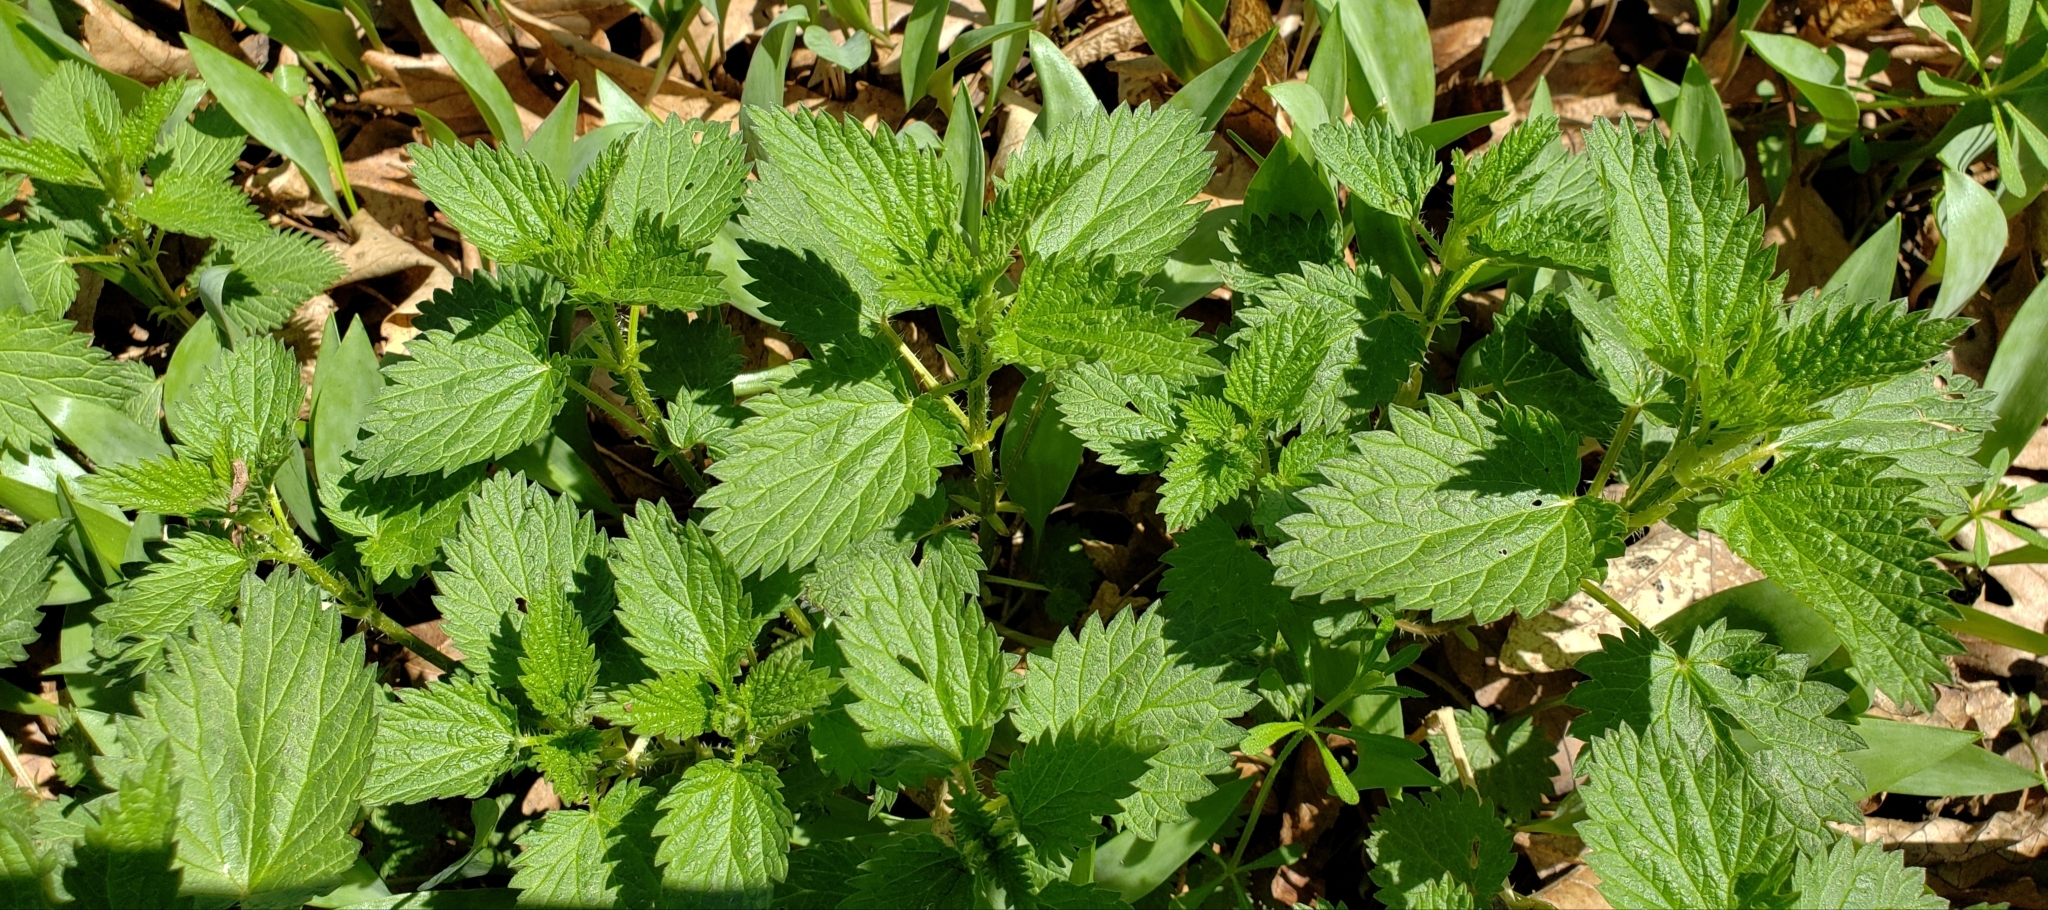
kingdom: Plantae
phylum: Tracheophyta
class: Magnoliopsida
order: Rosales
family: Urticaceae
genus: Urtica
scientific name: Urtica dioica
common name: Common nettle
